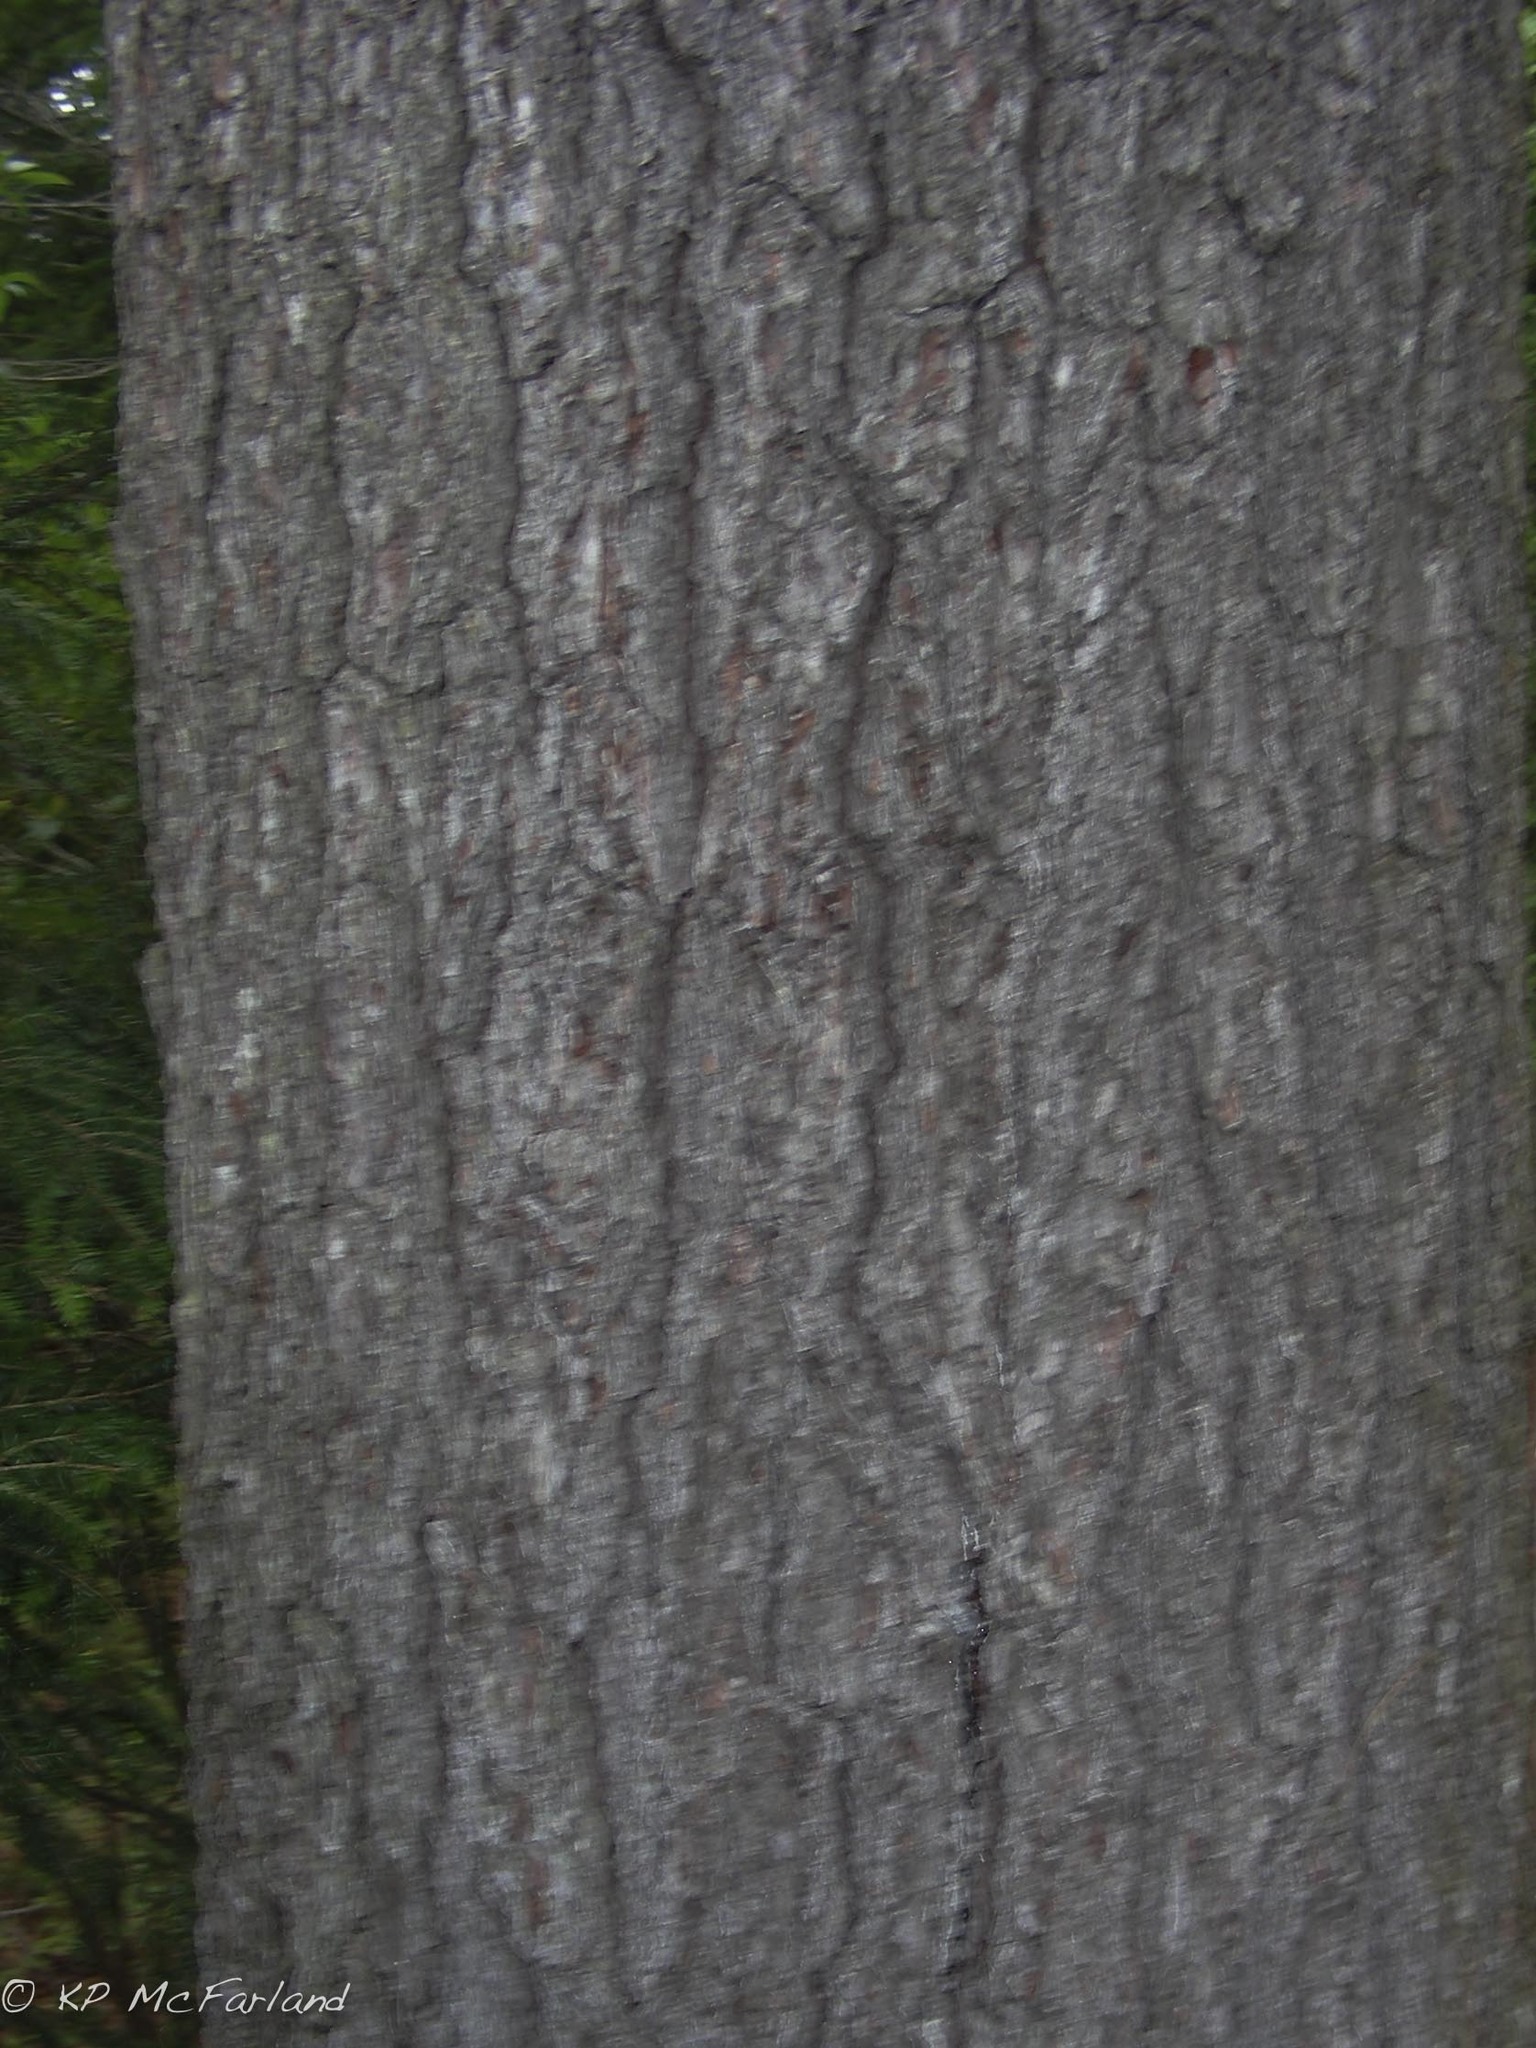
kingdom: Plantae
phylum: Tracheophyta
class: Pinopsida
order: Pinales
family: Pinaceae
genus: Pinus
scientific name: Pinus strobus
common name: Weymouth pine
